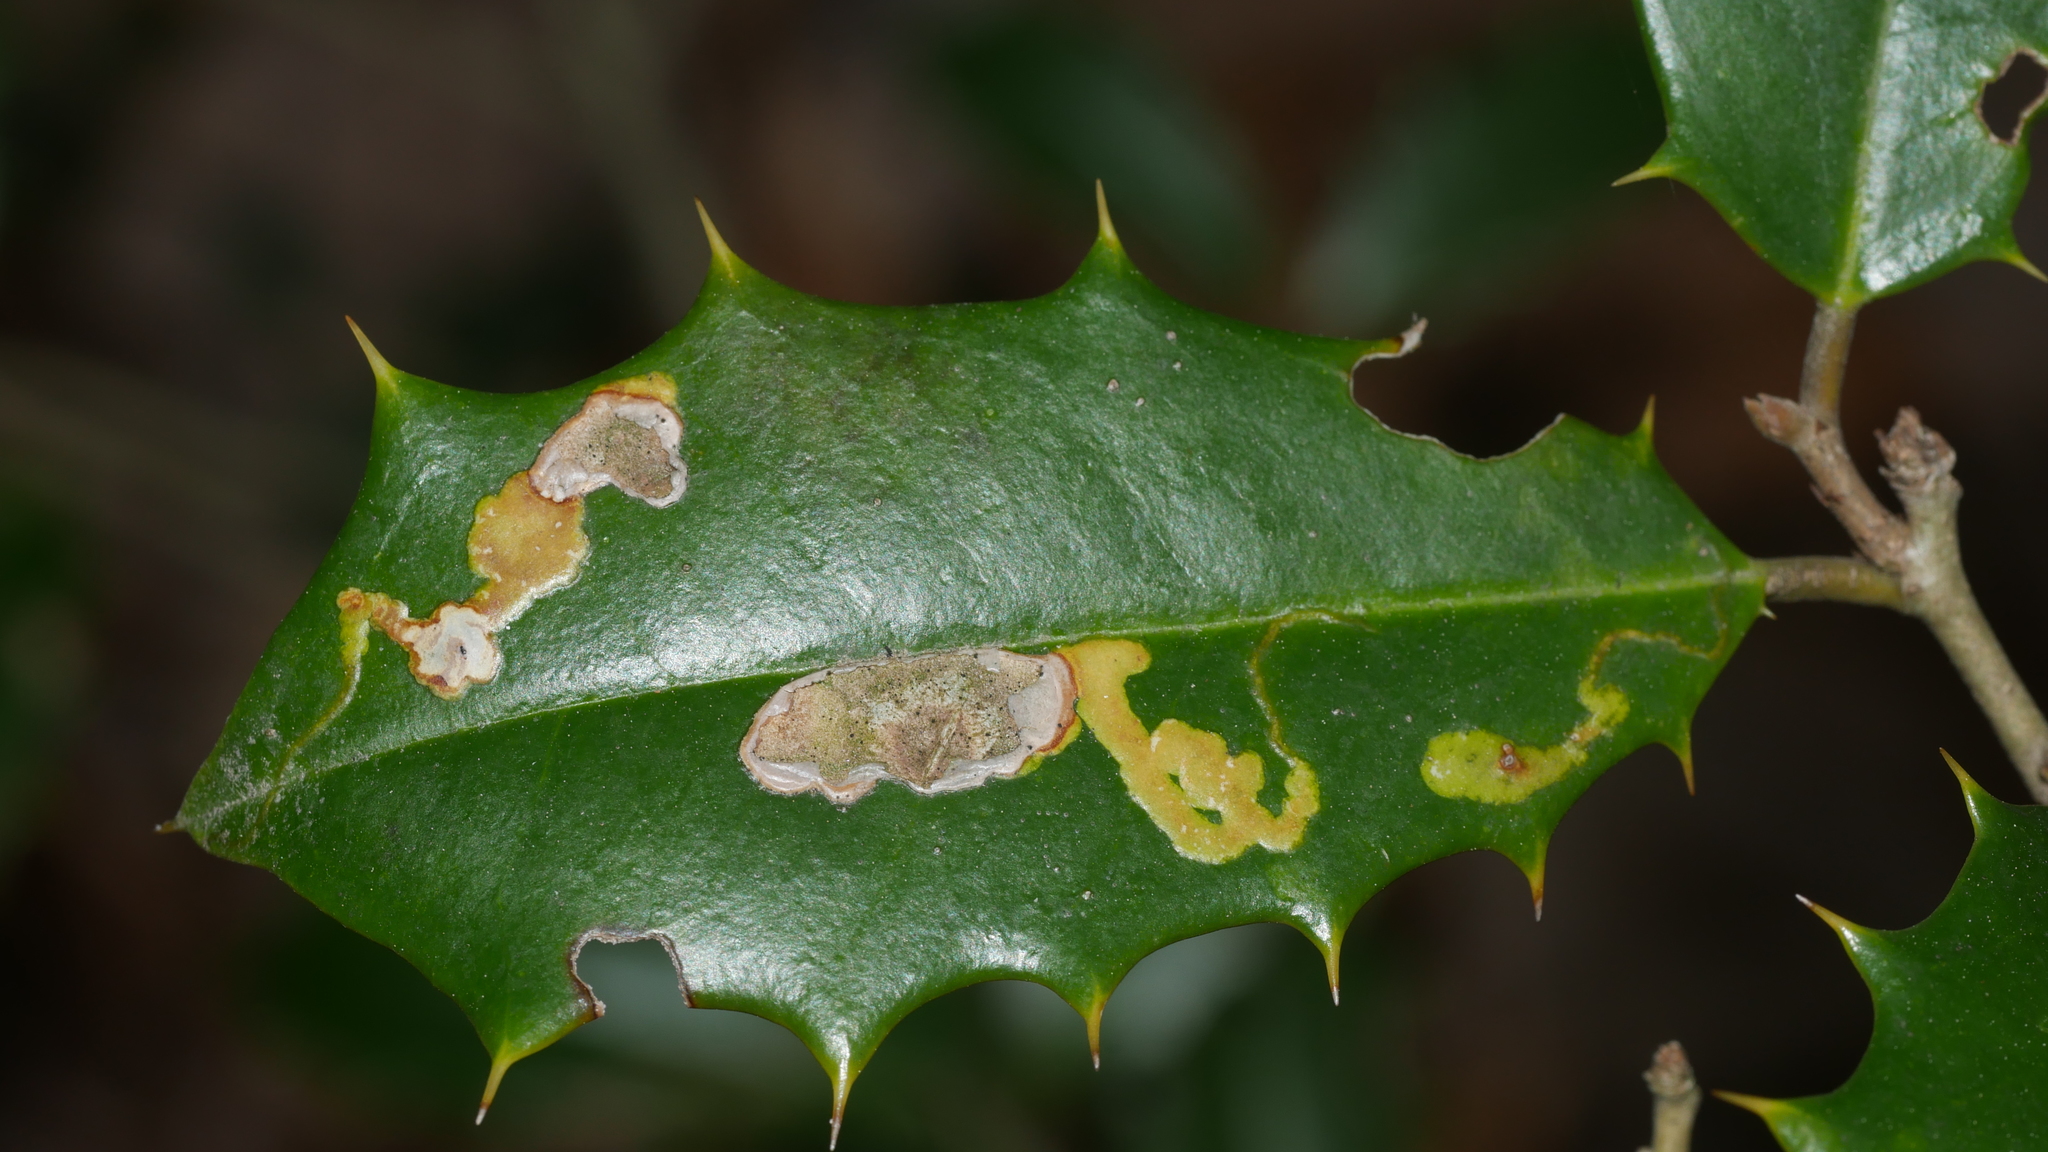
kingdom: Animalia
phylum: Arthropoda
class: Insecta
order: Diptera
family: Agromyzidae
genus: Phytomyza
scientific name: Phytomyza ilicicola
